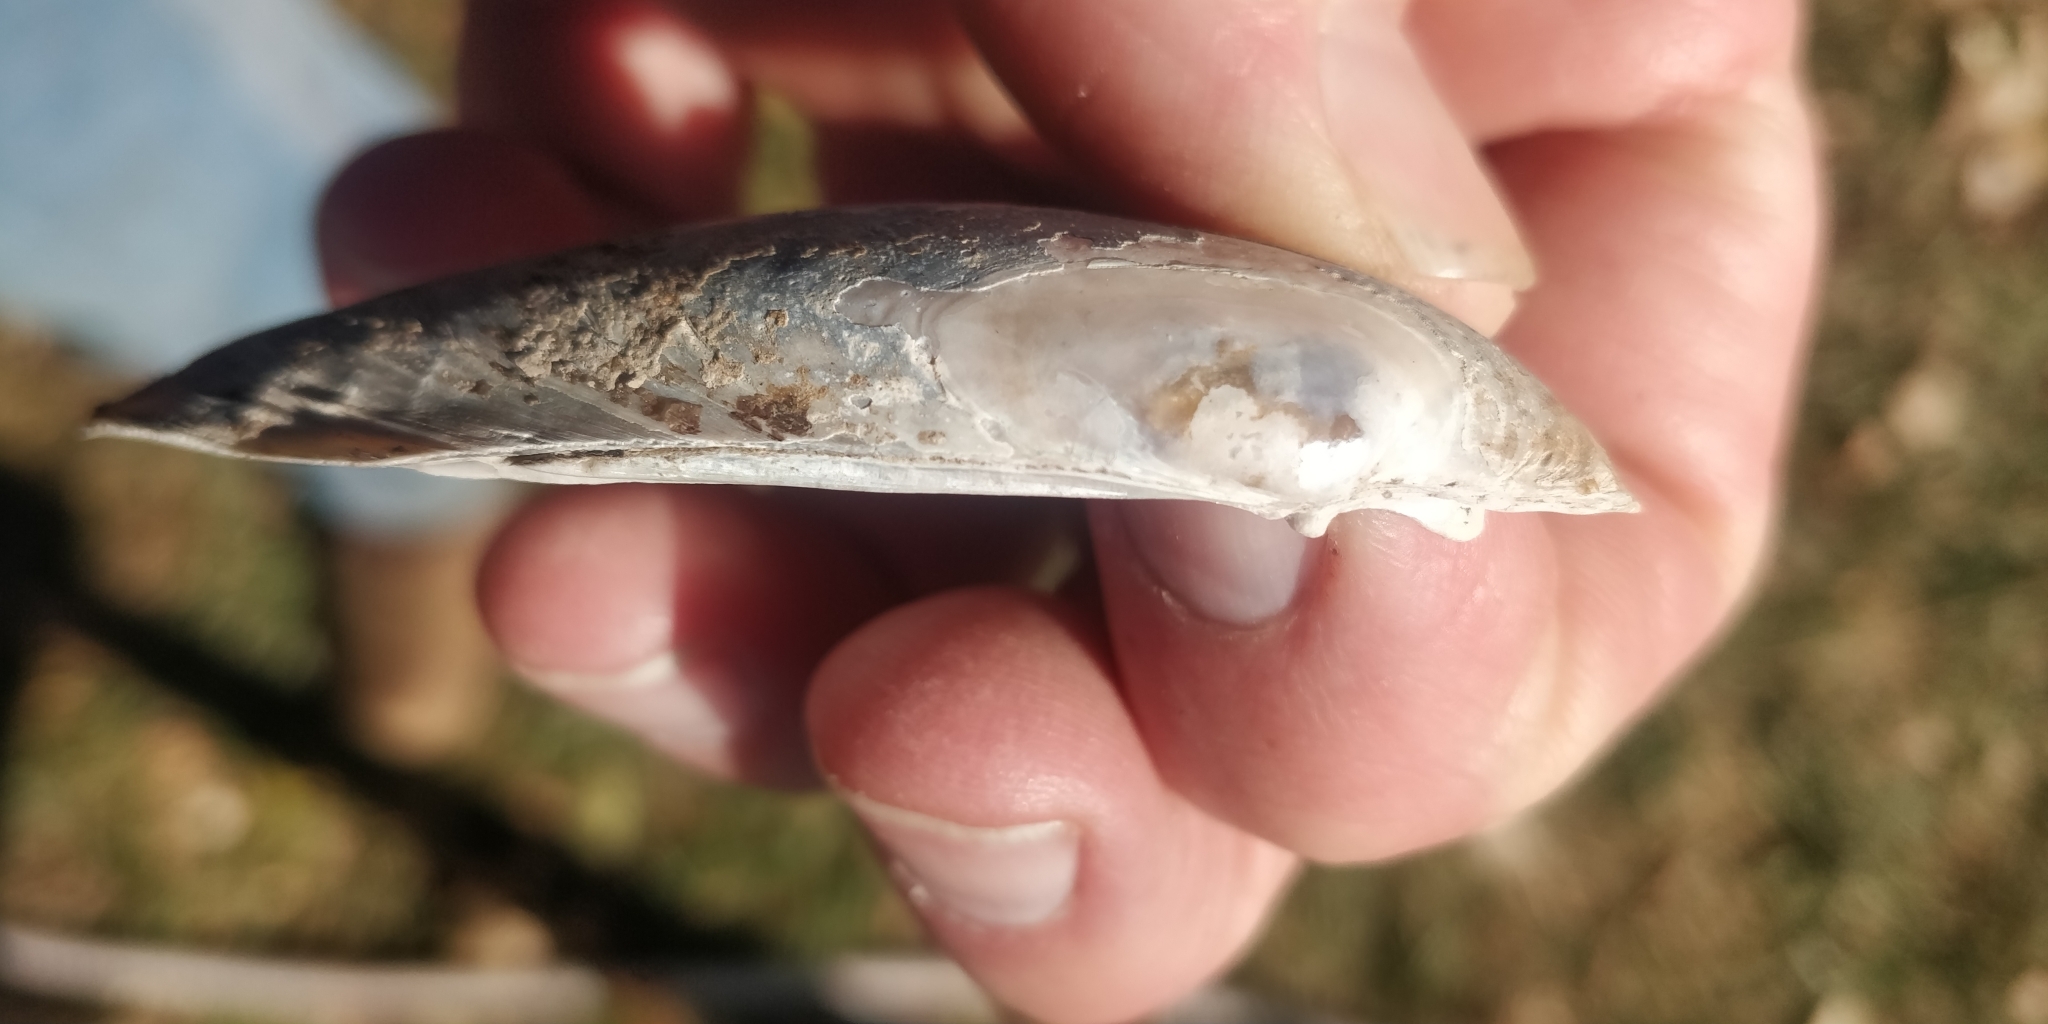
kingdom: Animalia
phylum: Mollusca
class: Bivalvia
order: Unionida
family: Unionidae
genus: Lampsilis
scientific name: Lampsilis teres
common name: Yellow sandshell
